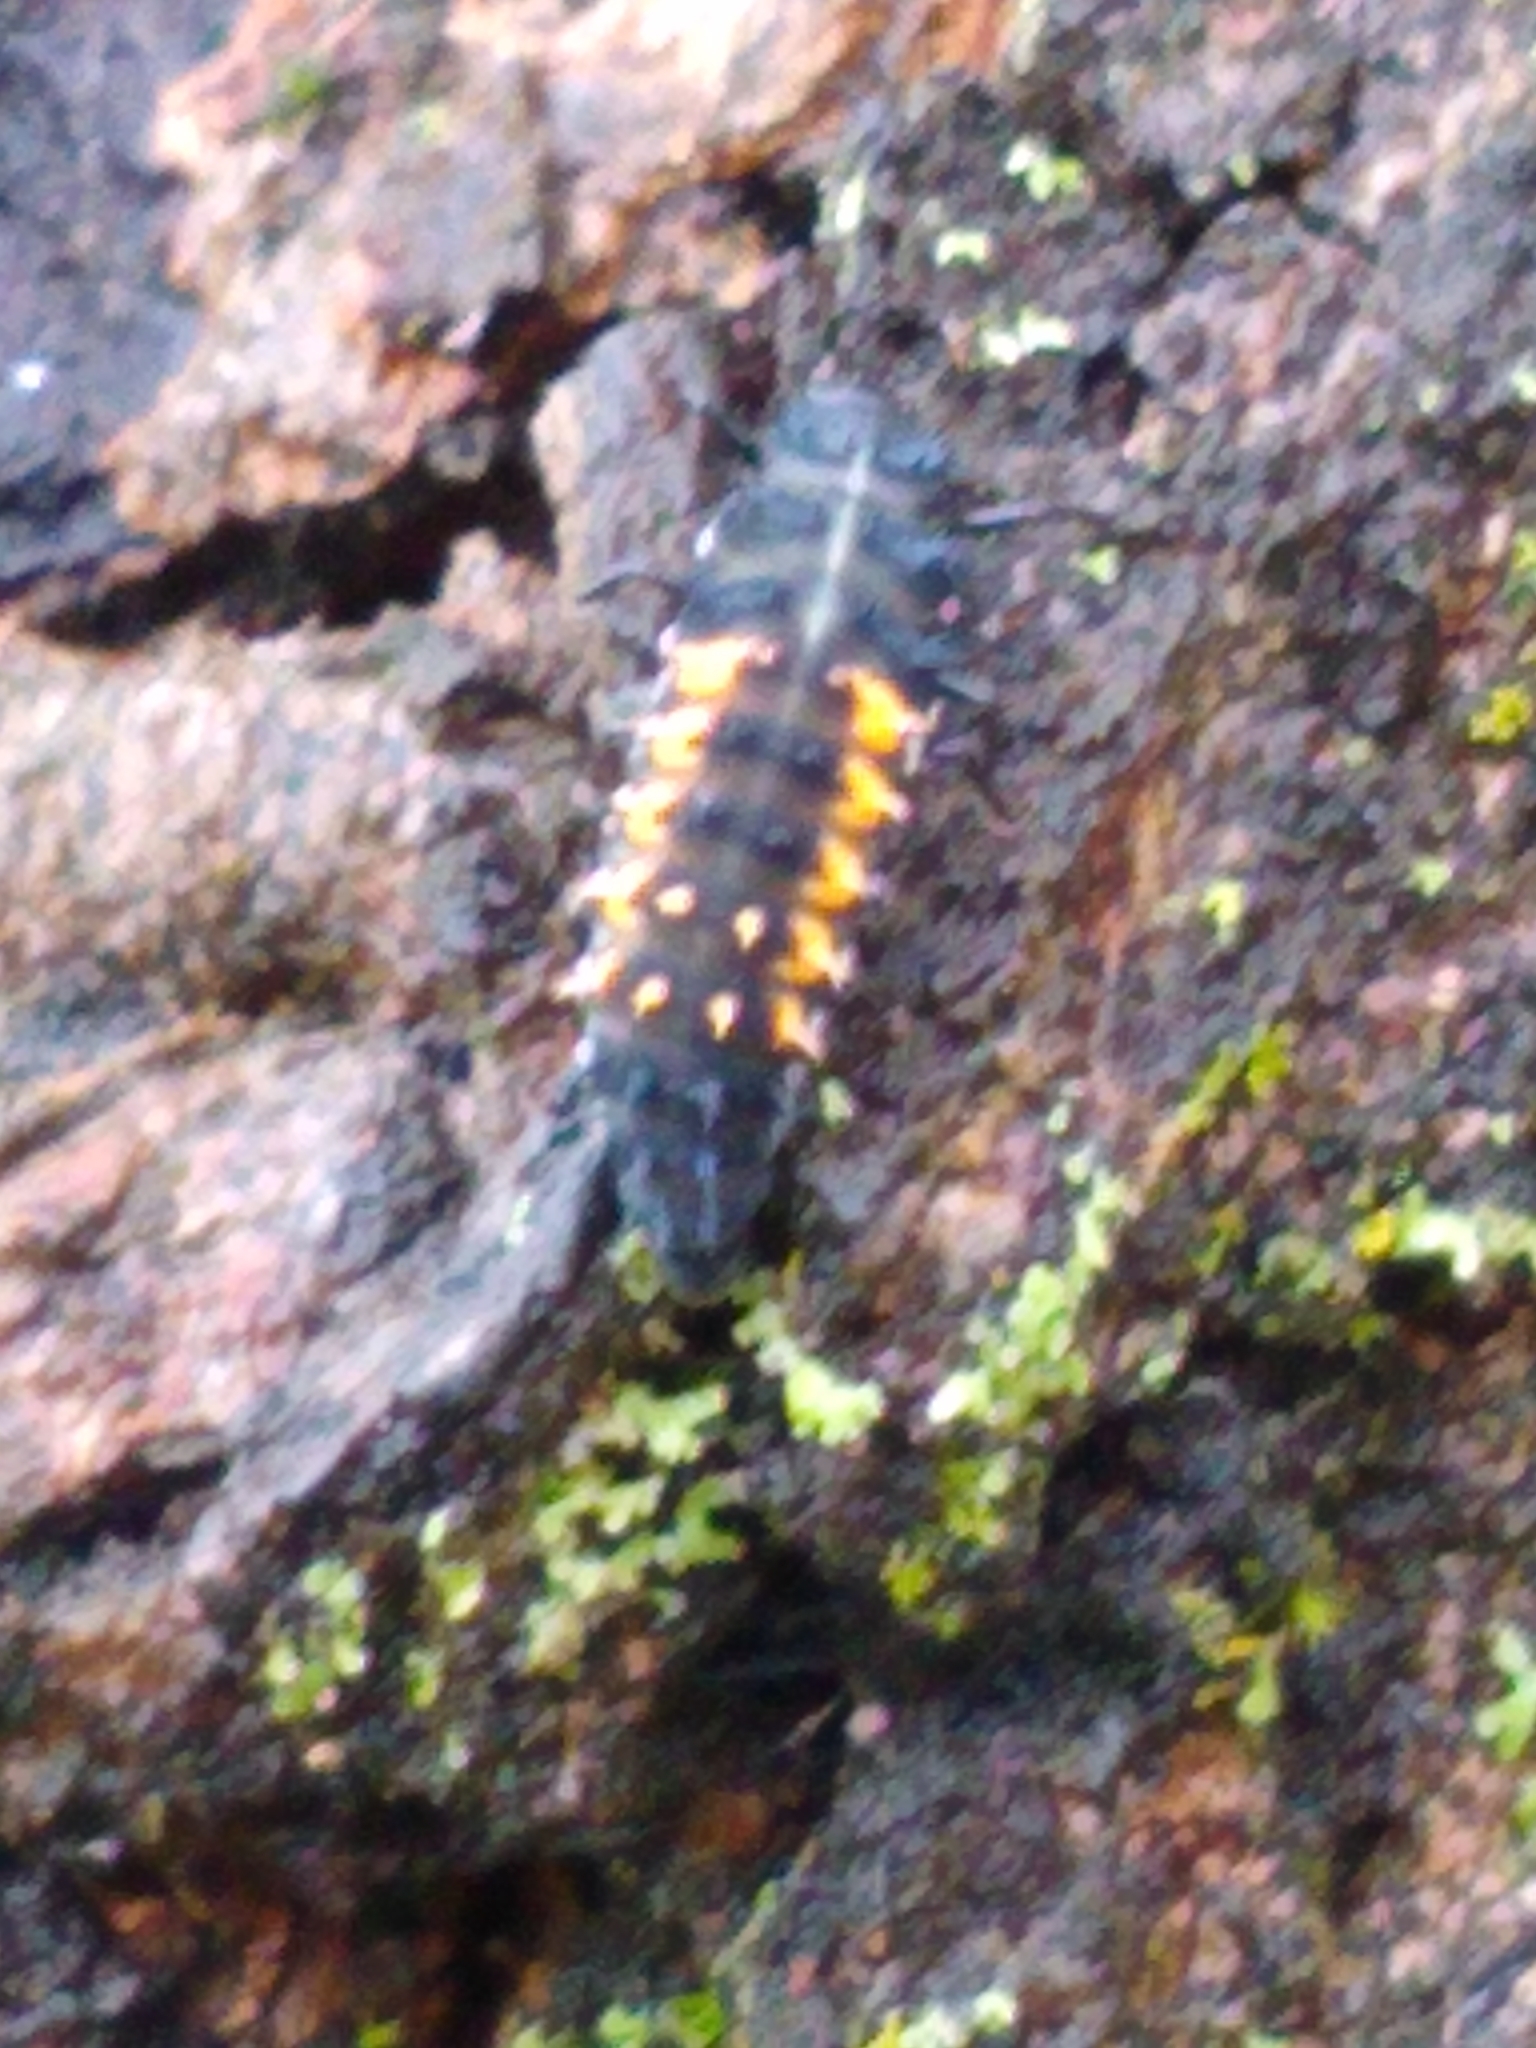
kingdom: Animalia
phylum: Arthropoda
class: Insecta
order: Coleoptera
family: Coccinellidae
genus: Harmonia
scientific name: Harmonia axyridis
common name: Harlequin ladybird
